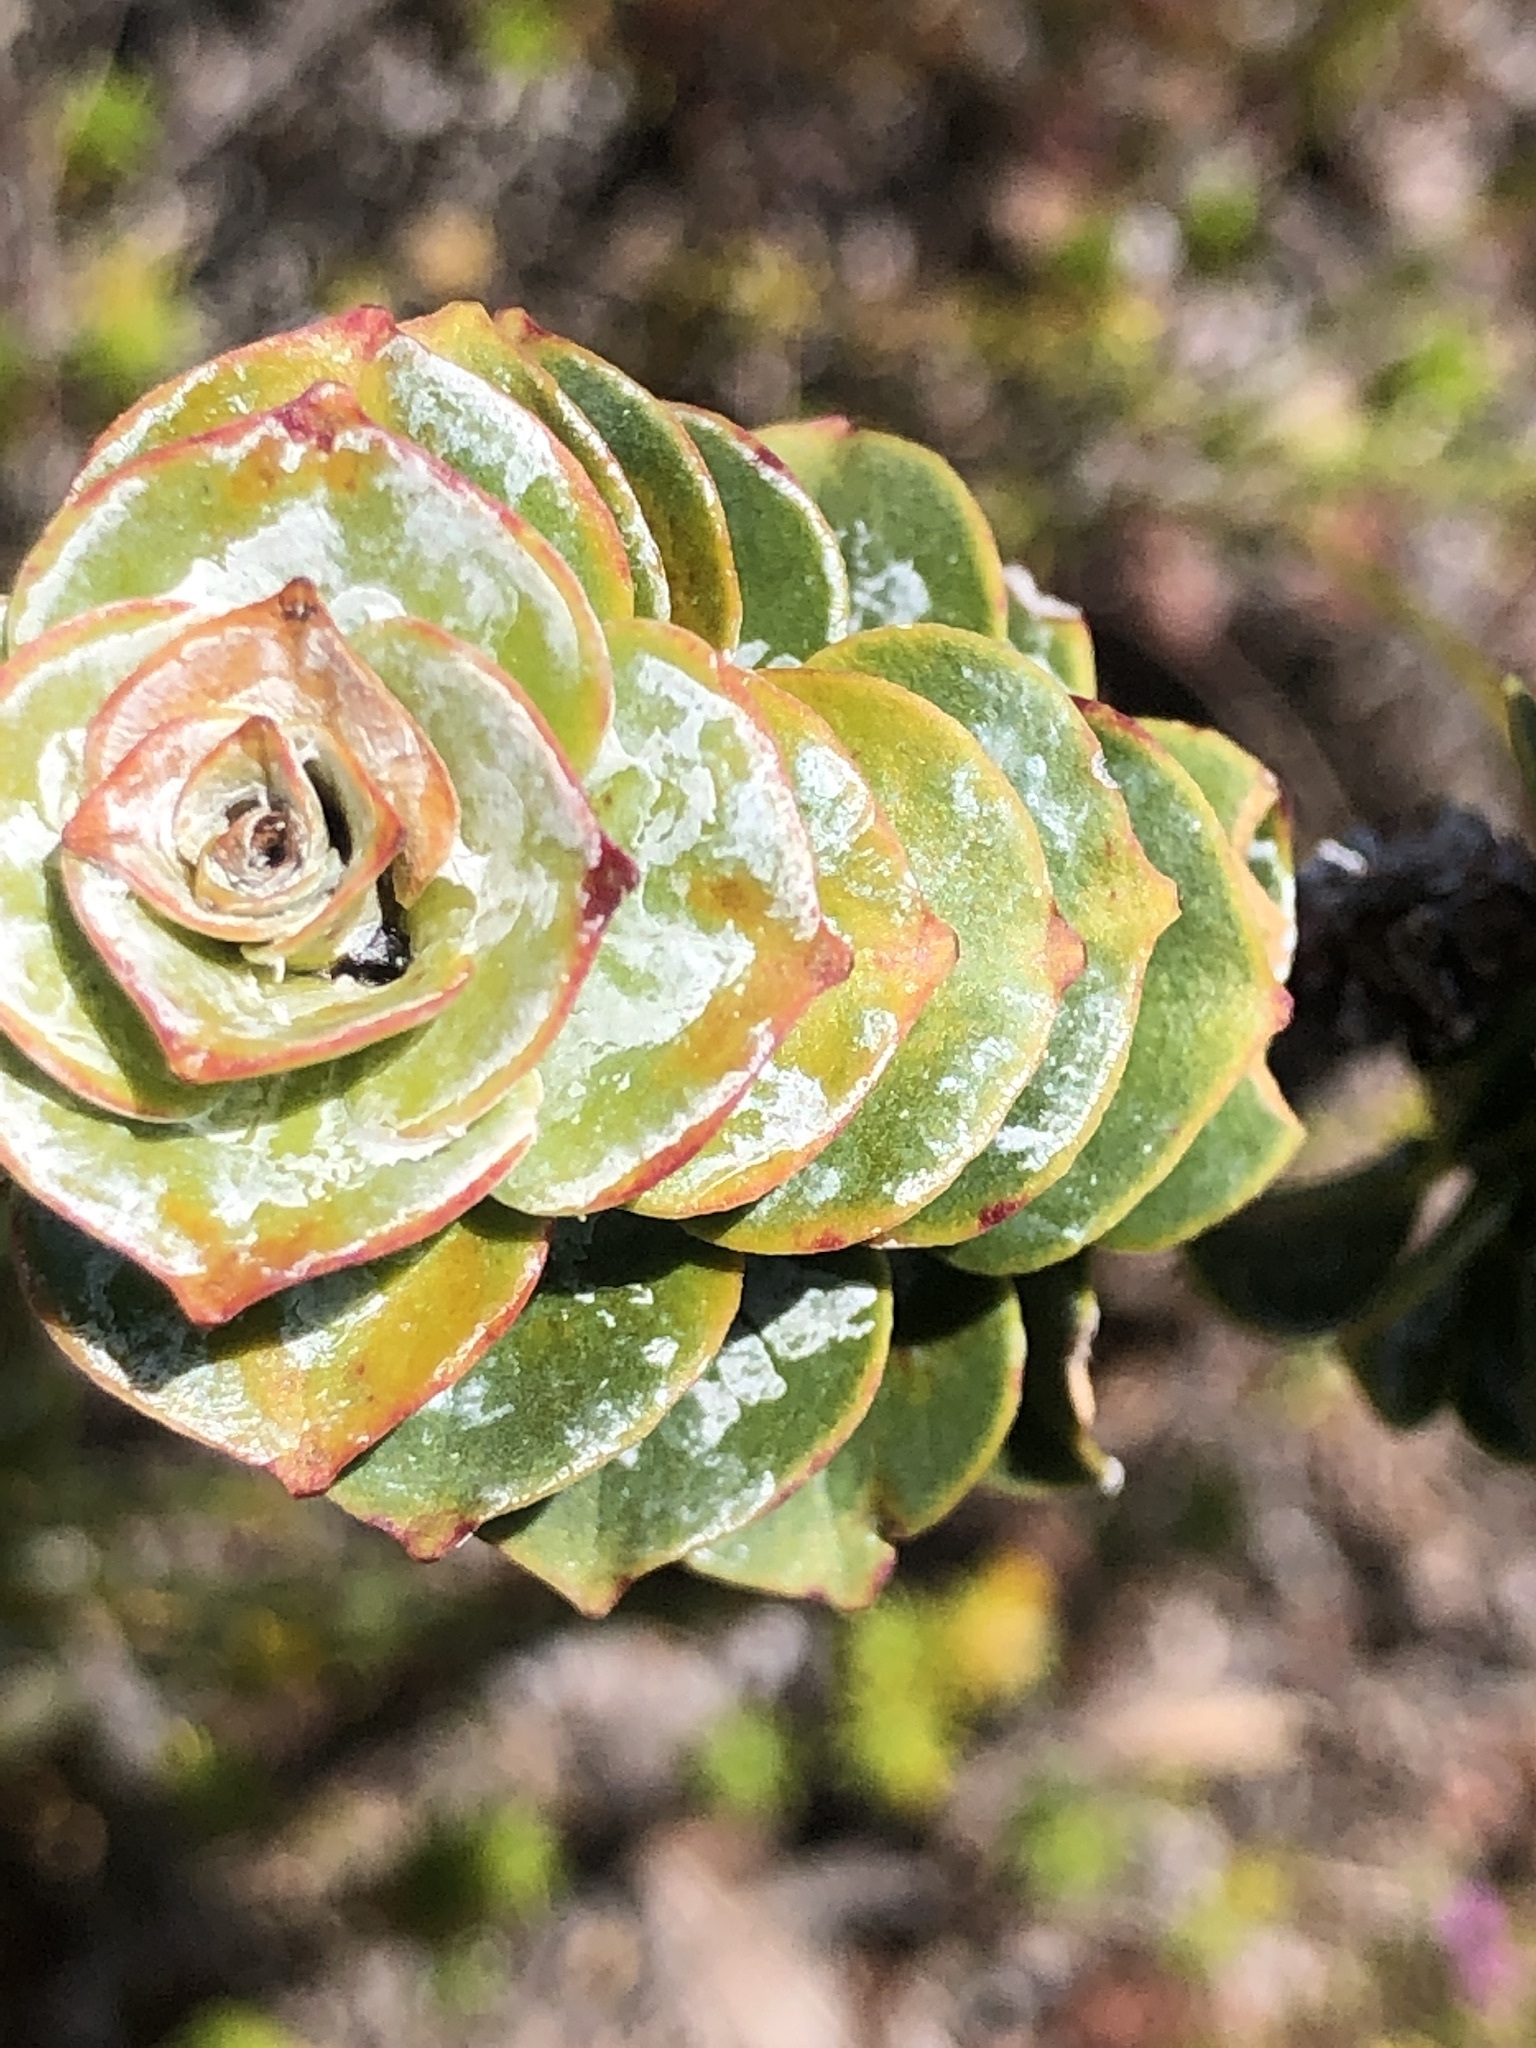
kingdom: Plantae
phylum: Tracheophyta
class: Magnoliopsida
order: Myrtales
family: Penaeaceae
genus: Saltera
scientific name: Saltera sarcocolla
